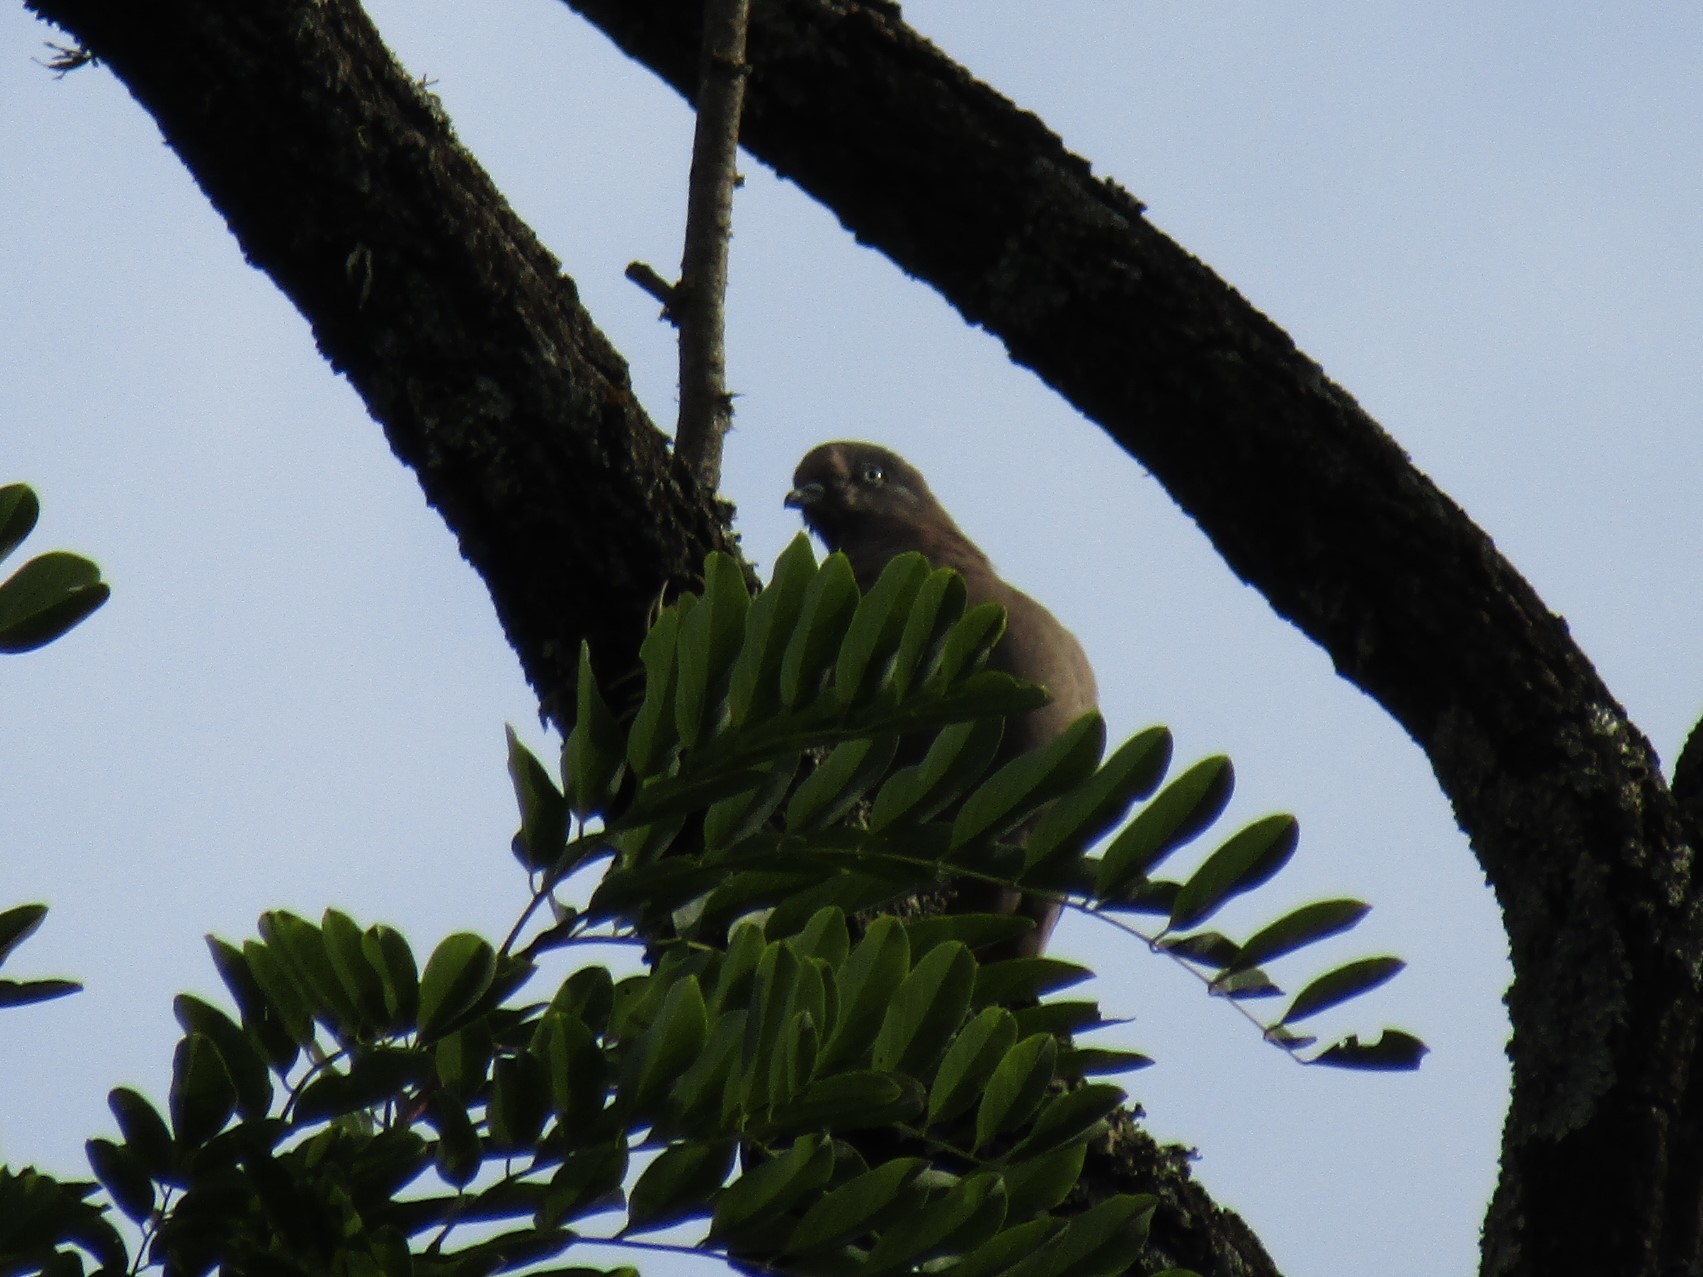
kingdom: Animalia
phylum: Chordata
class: Aves
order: Columbiformes
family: Columbidae
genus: Patagioenas
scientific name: Patagioenas maculosa
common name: Spot-winged pigeon
